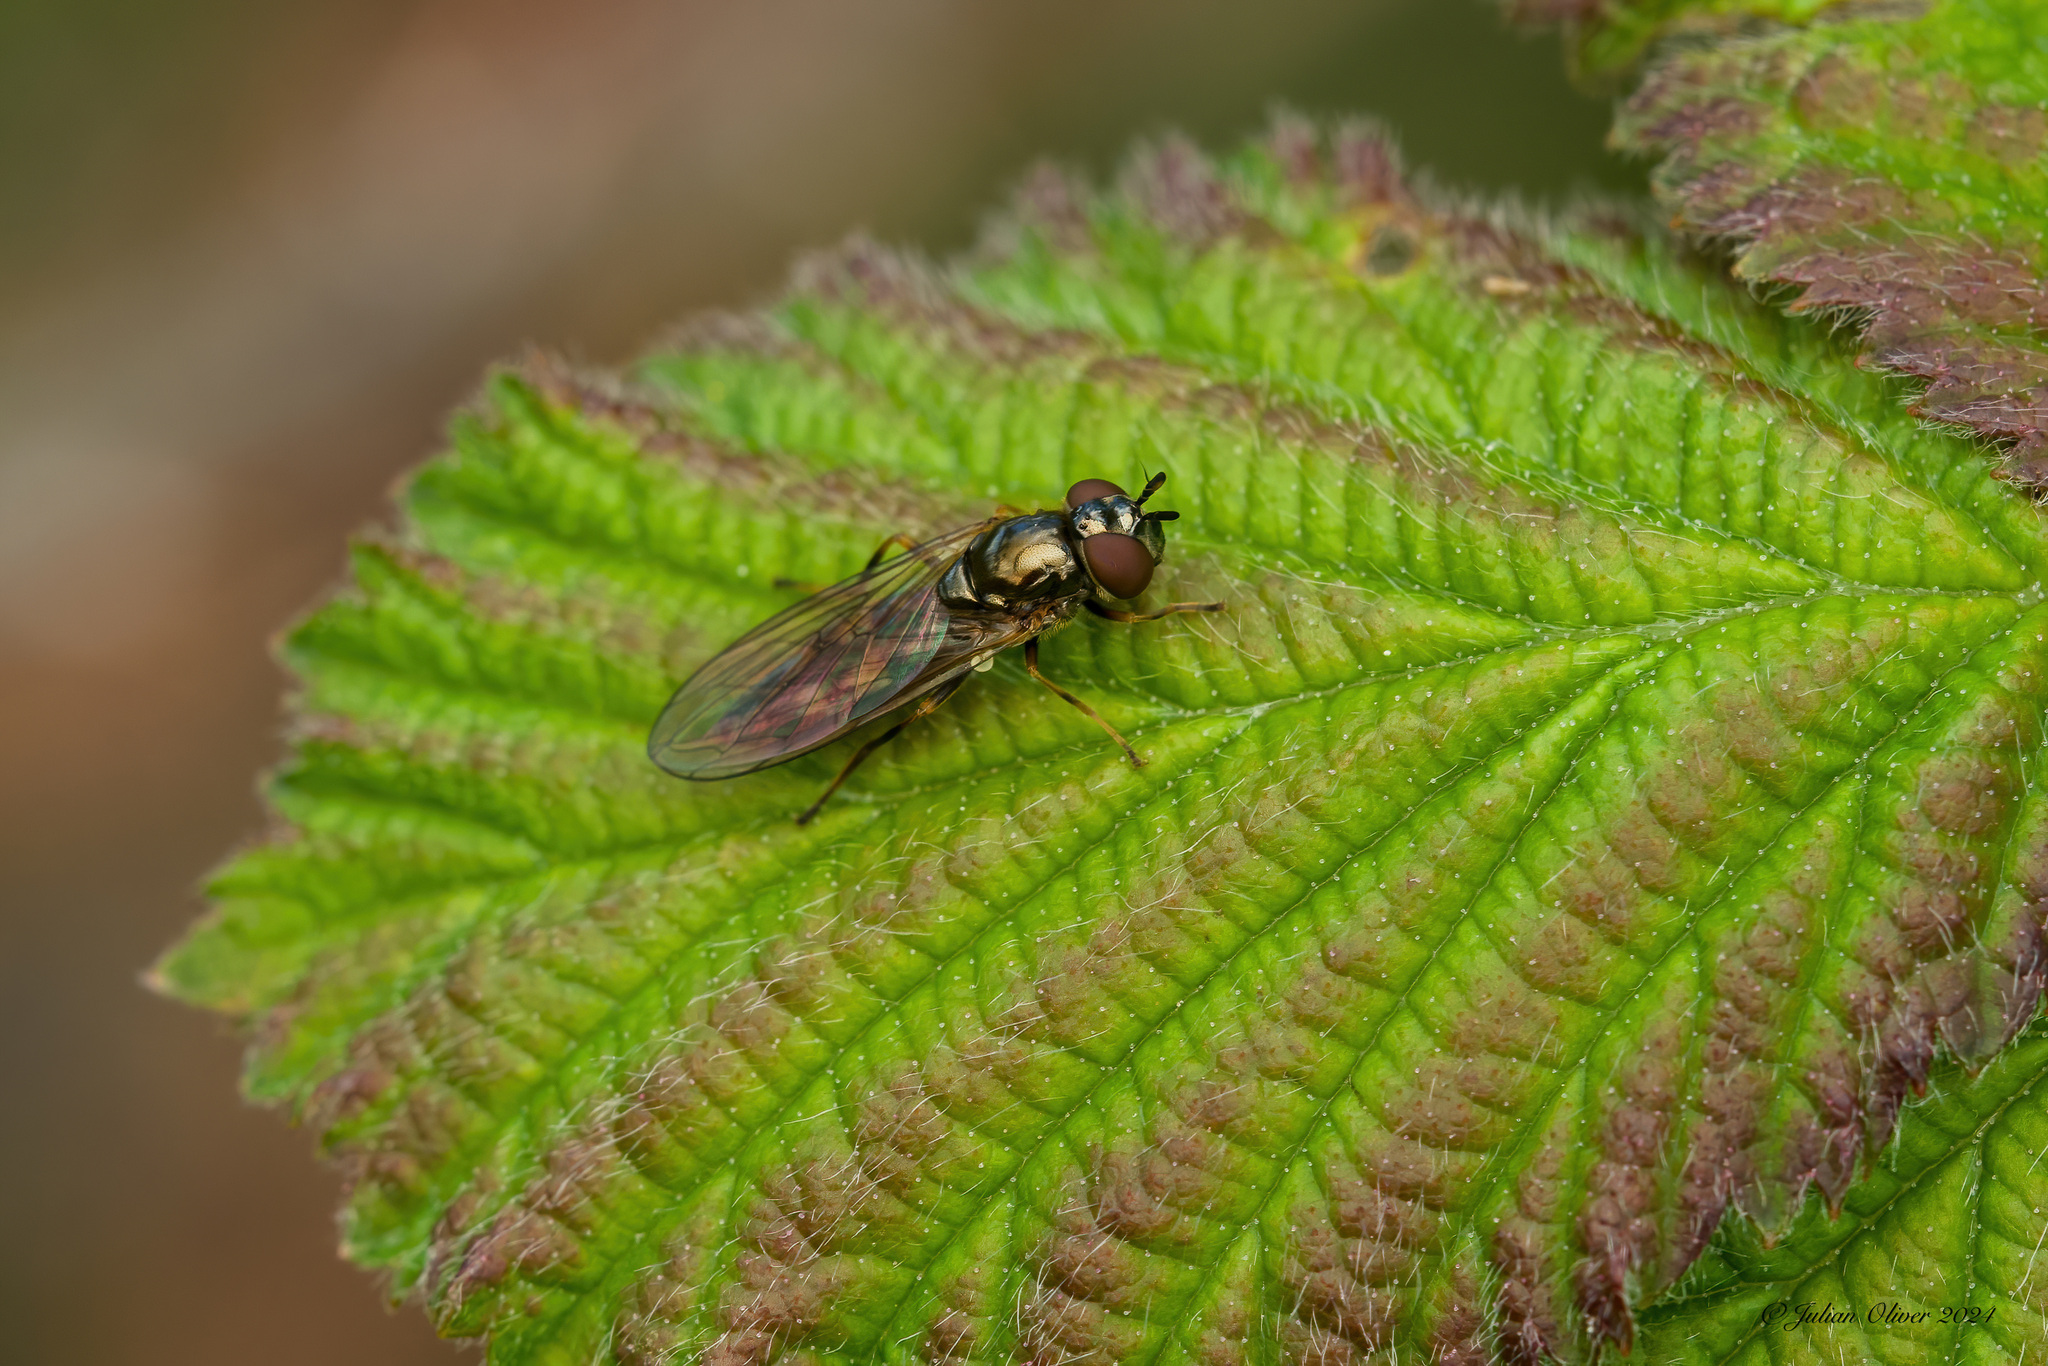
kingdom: Animalia
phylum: Arthropoda
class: Insecta
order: Diptera
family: Syrphidae
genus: Melanostoma
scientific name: Melanostoma mellina
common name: Hover fly
